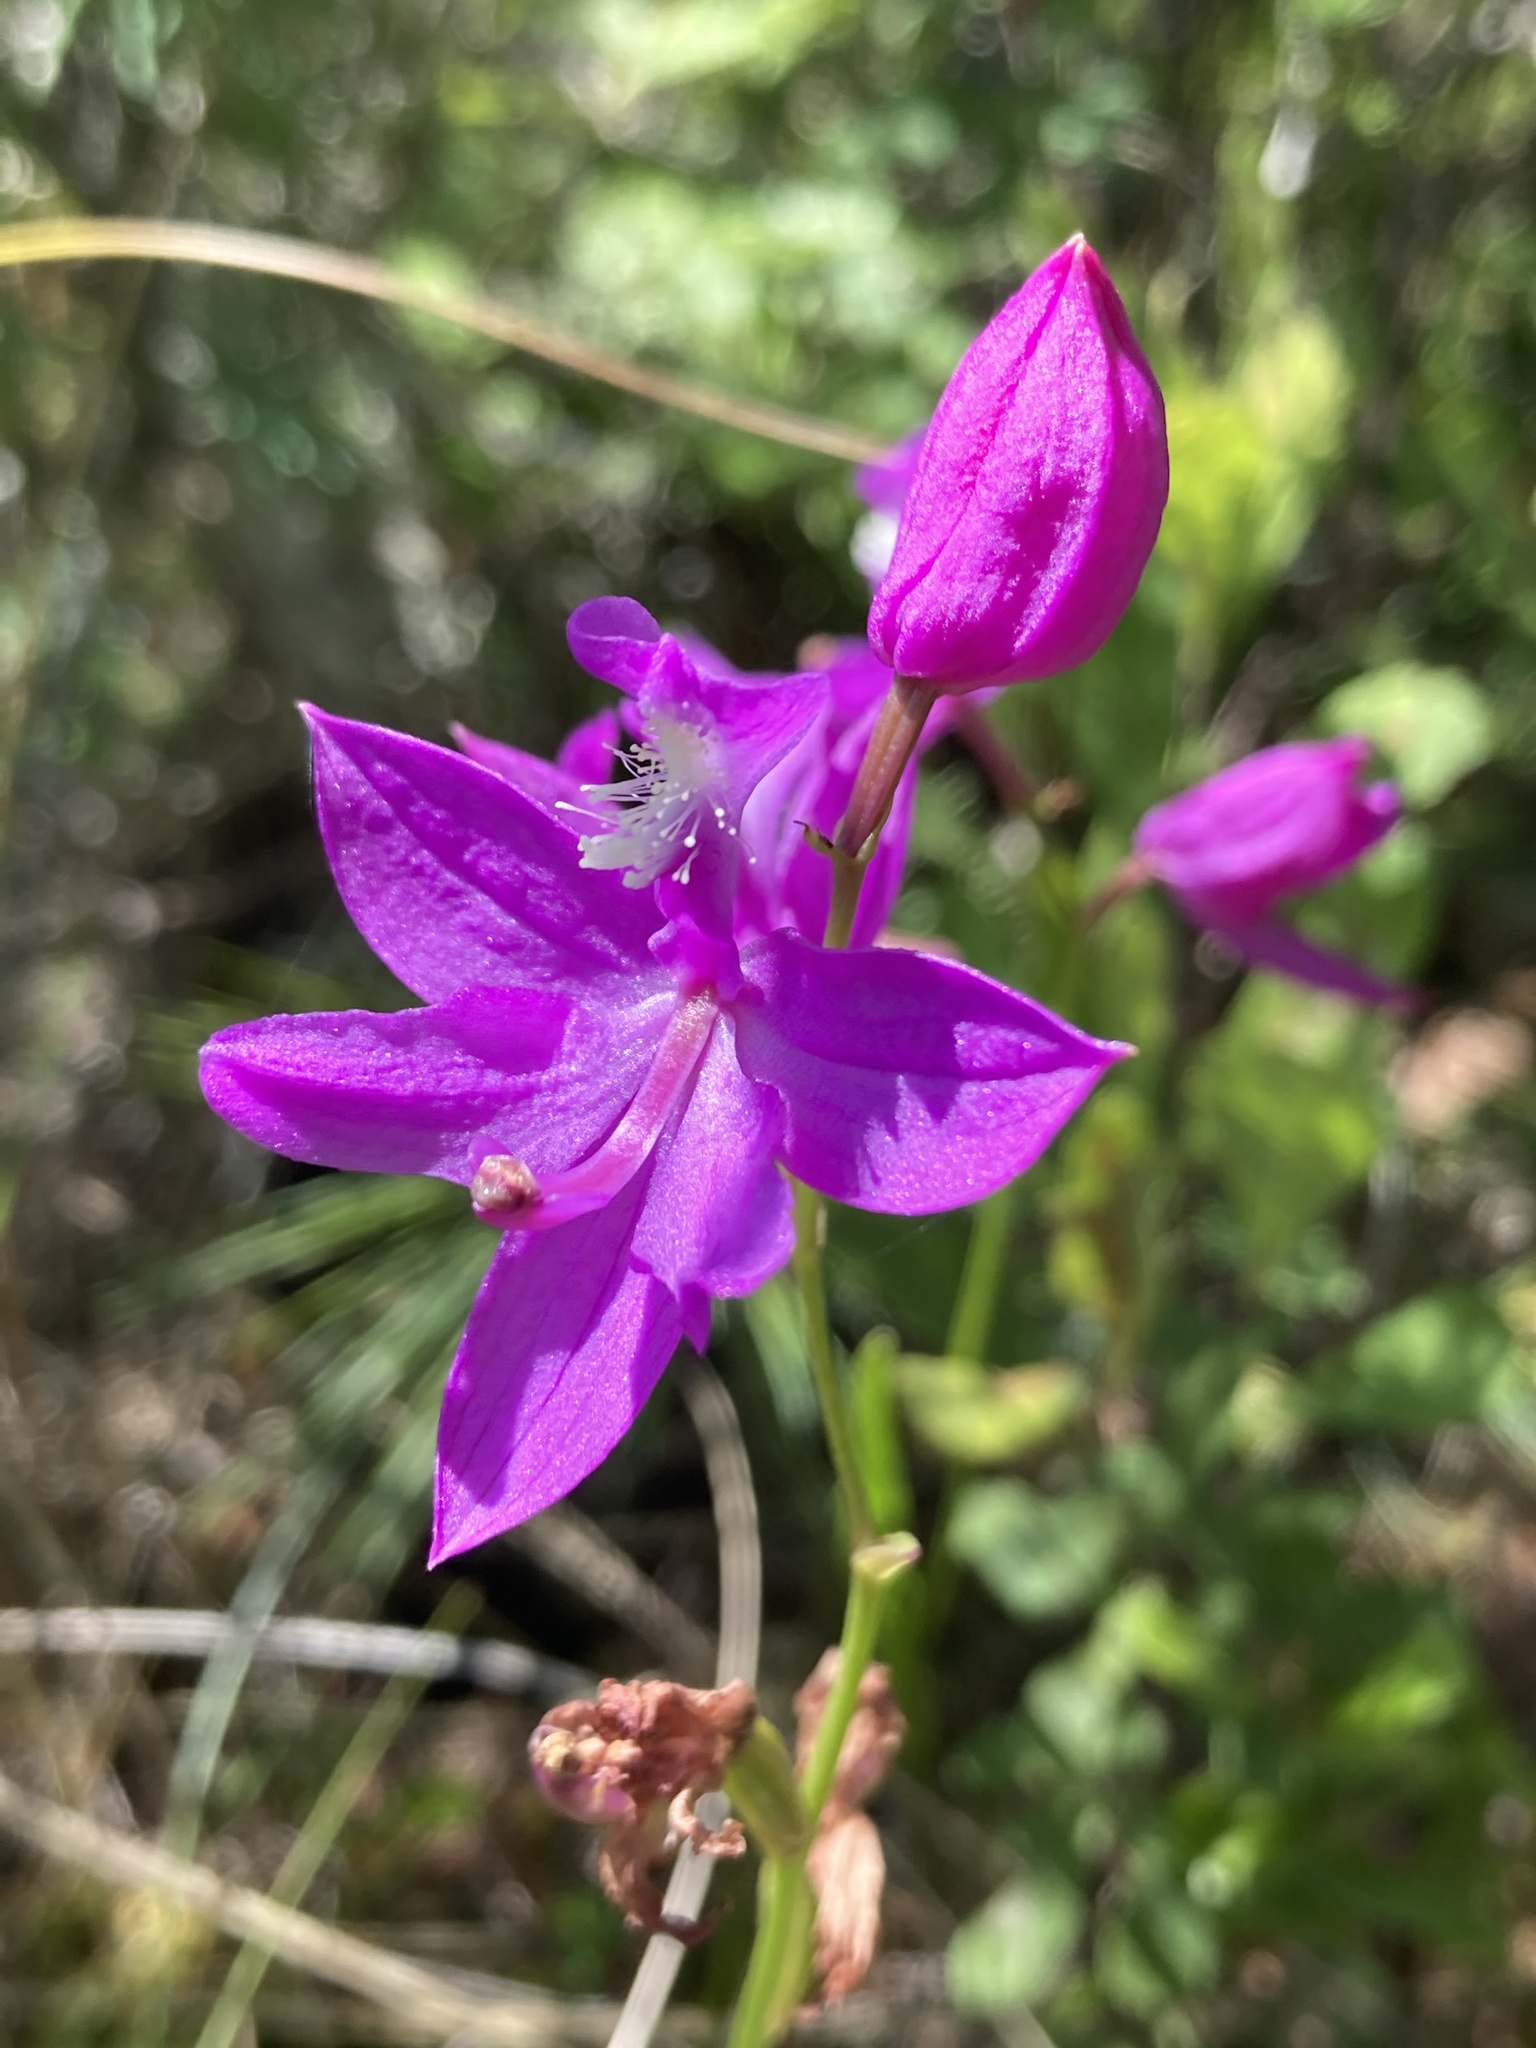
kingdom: Plantae
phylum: Tracheophyta
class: Liliopsida
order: Asparagales
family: Orchidaceae
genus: Calopogon
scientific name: Calopogon tuberosus
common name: Grass-pink
